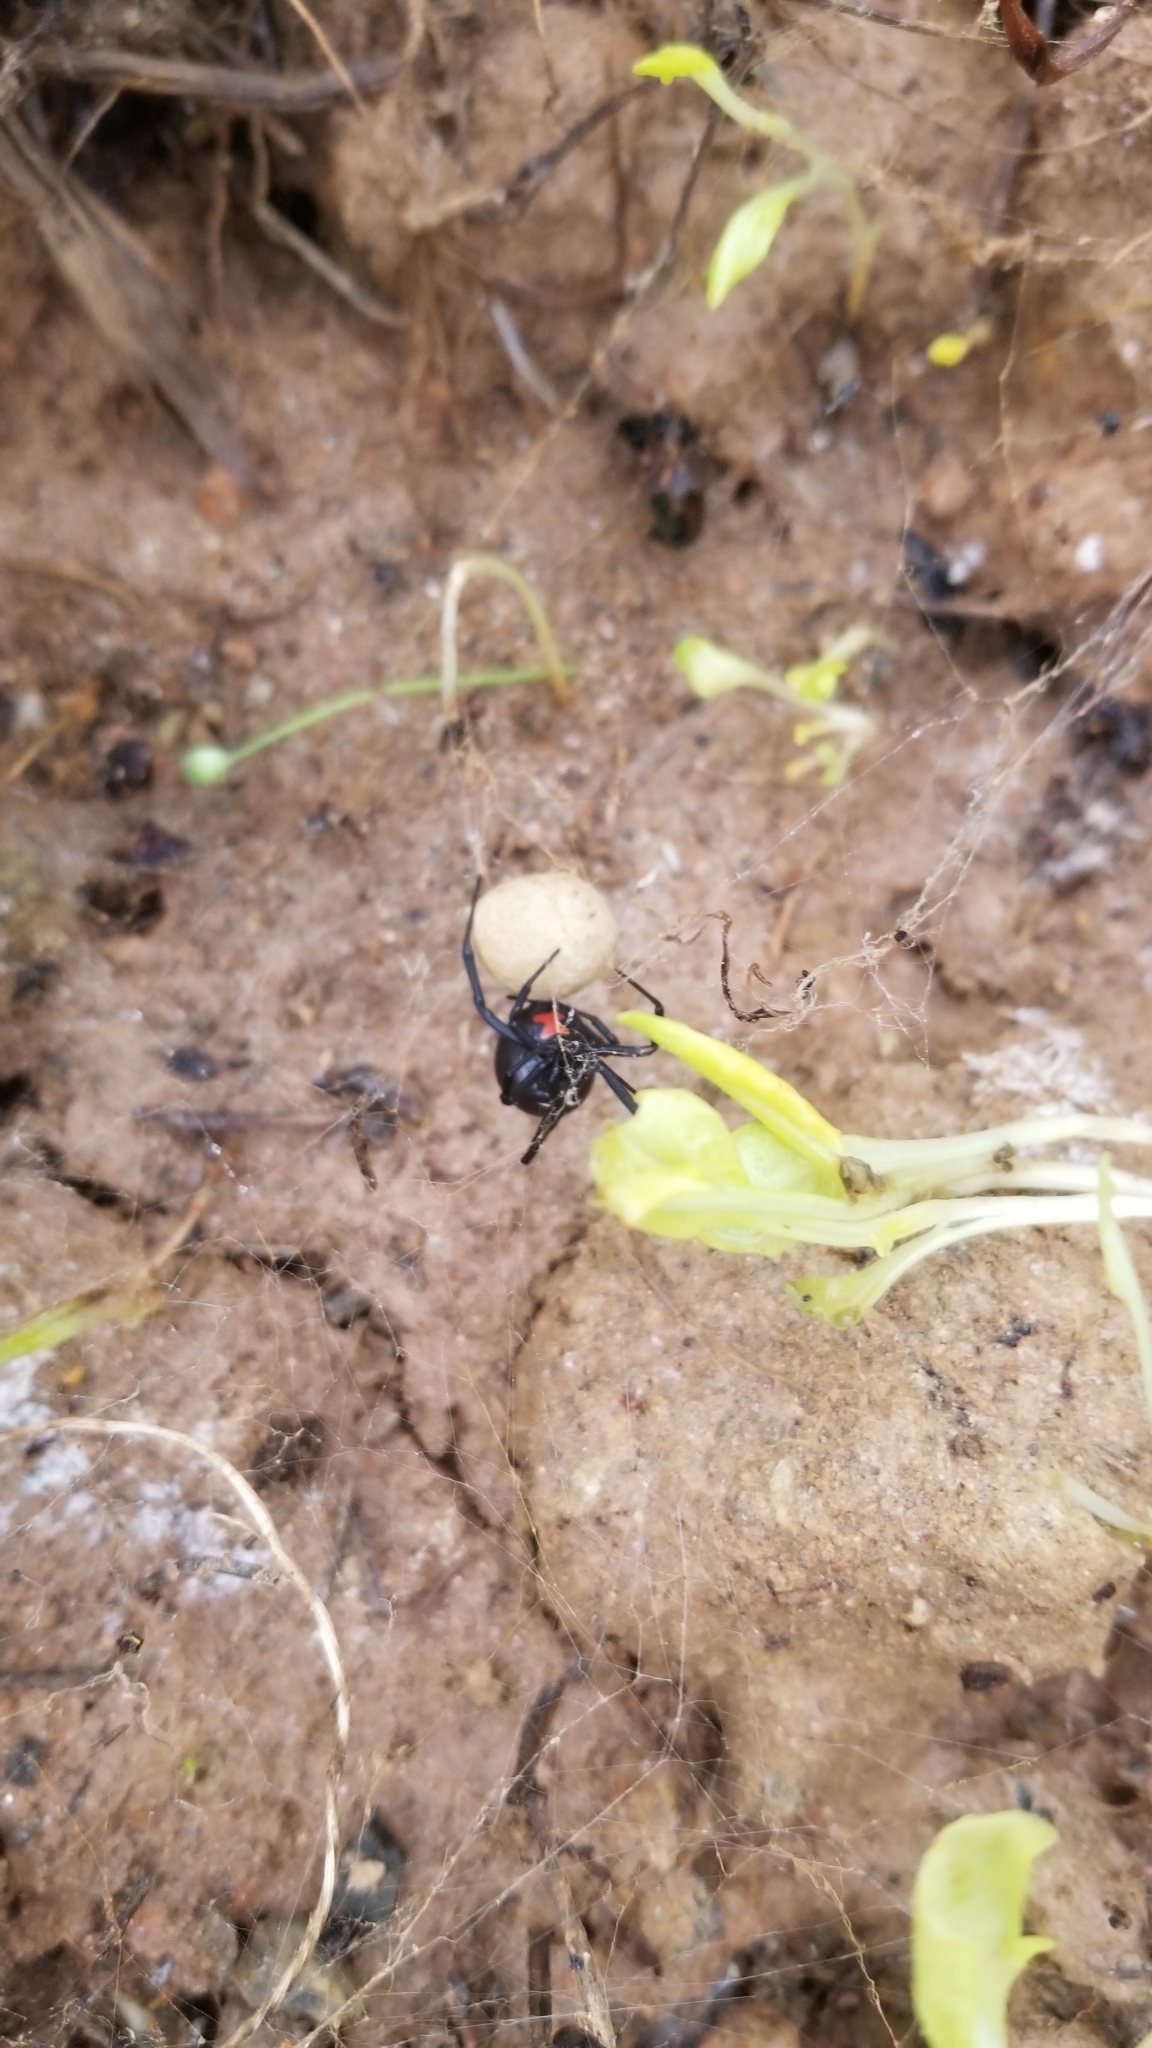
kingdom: Animalia
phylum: Arthropoda
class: Arachnida
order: Araneae
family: Theridiidae
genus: Latrodectus
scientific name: Latrodectus mactans
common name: Cobweb spiders
